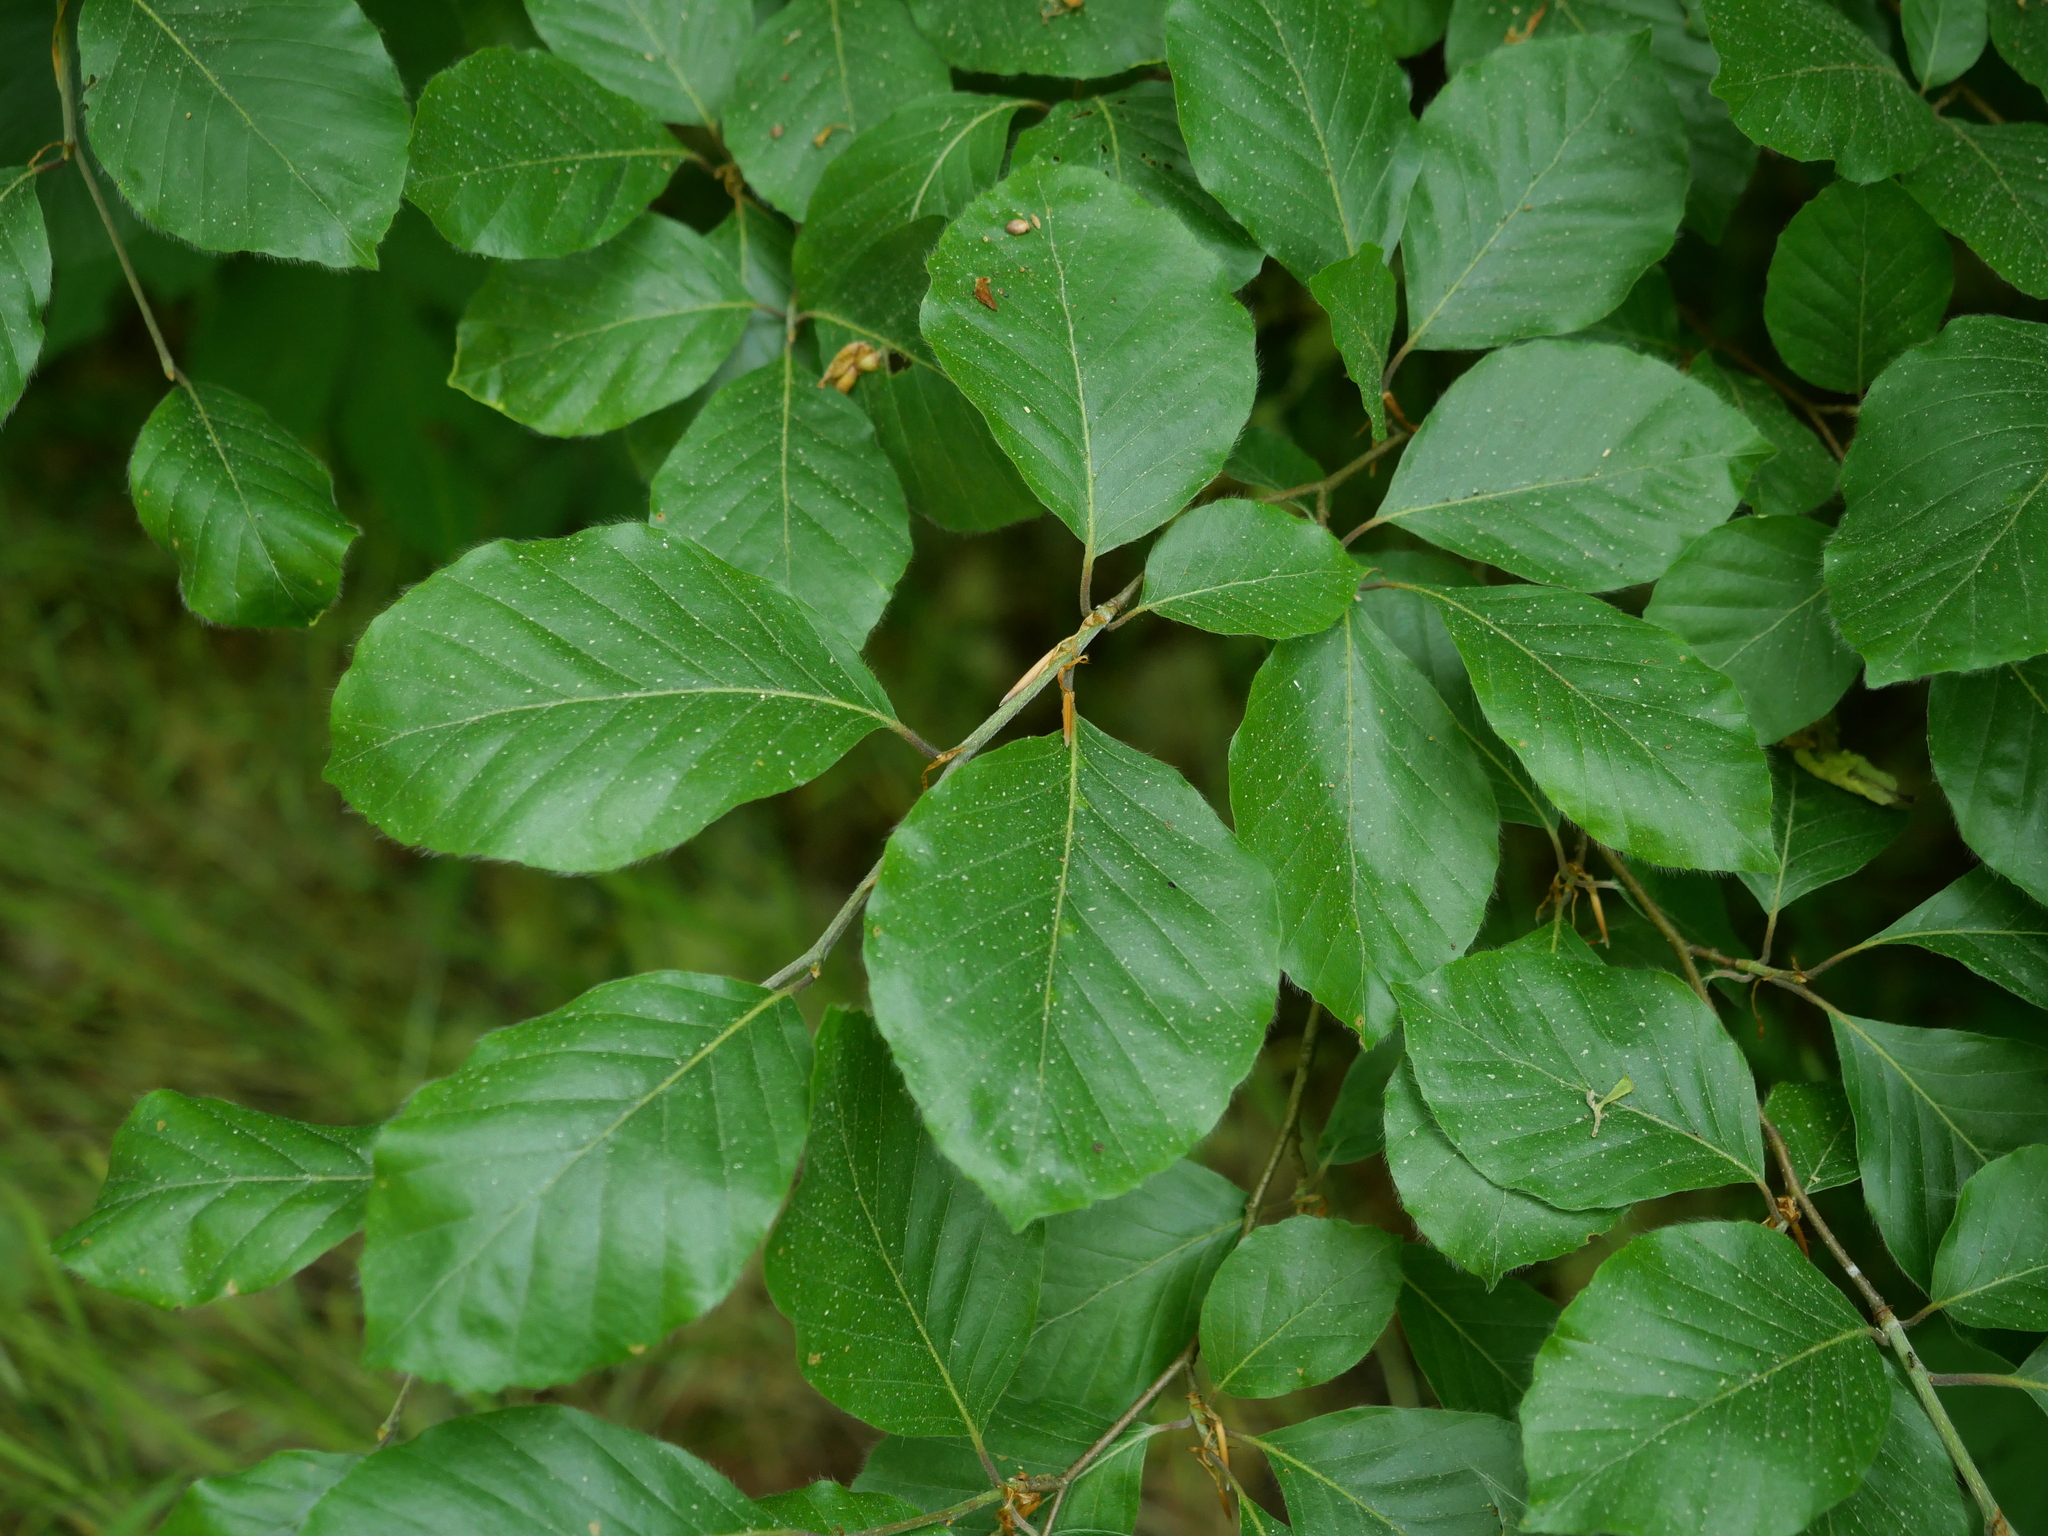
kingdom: Plantae
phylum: Tracheophyta
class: Magnoliopsida
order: Fagales
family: Fagaceae
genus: Fagus
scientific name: Fagus sylvatica
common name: Beech
